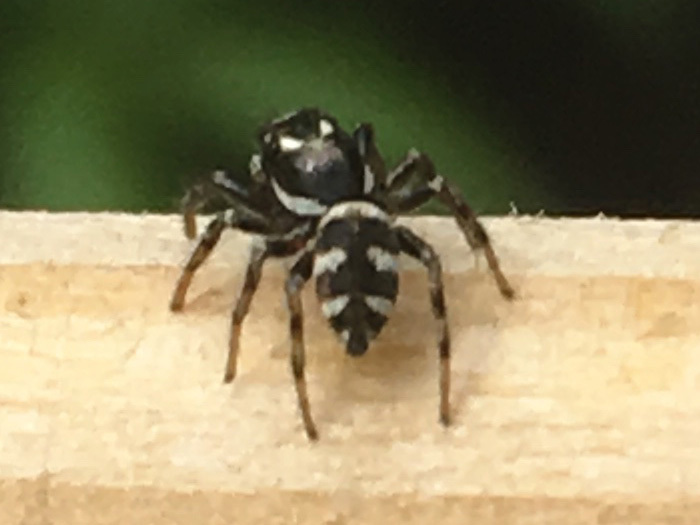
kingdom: Animalia
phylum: Arthropoda
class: Arachnida
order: Araneae
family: Salticidae
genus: Salticus
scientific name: Salticus scenicus
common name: Zebra jumper
